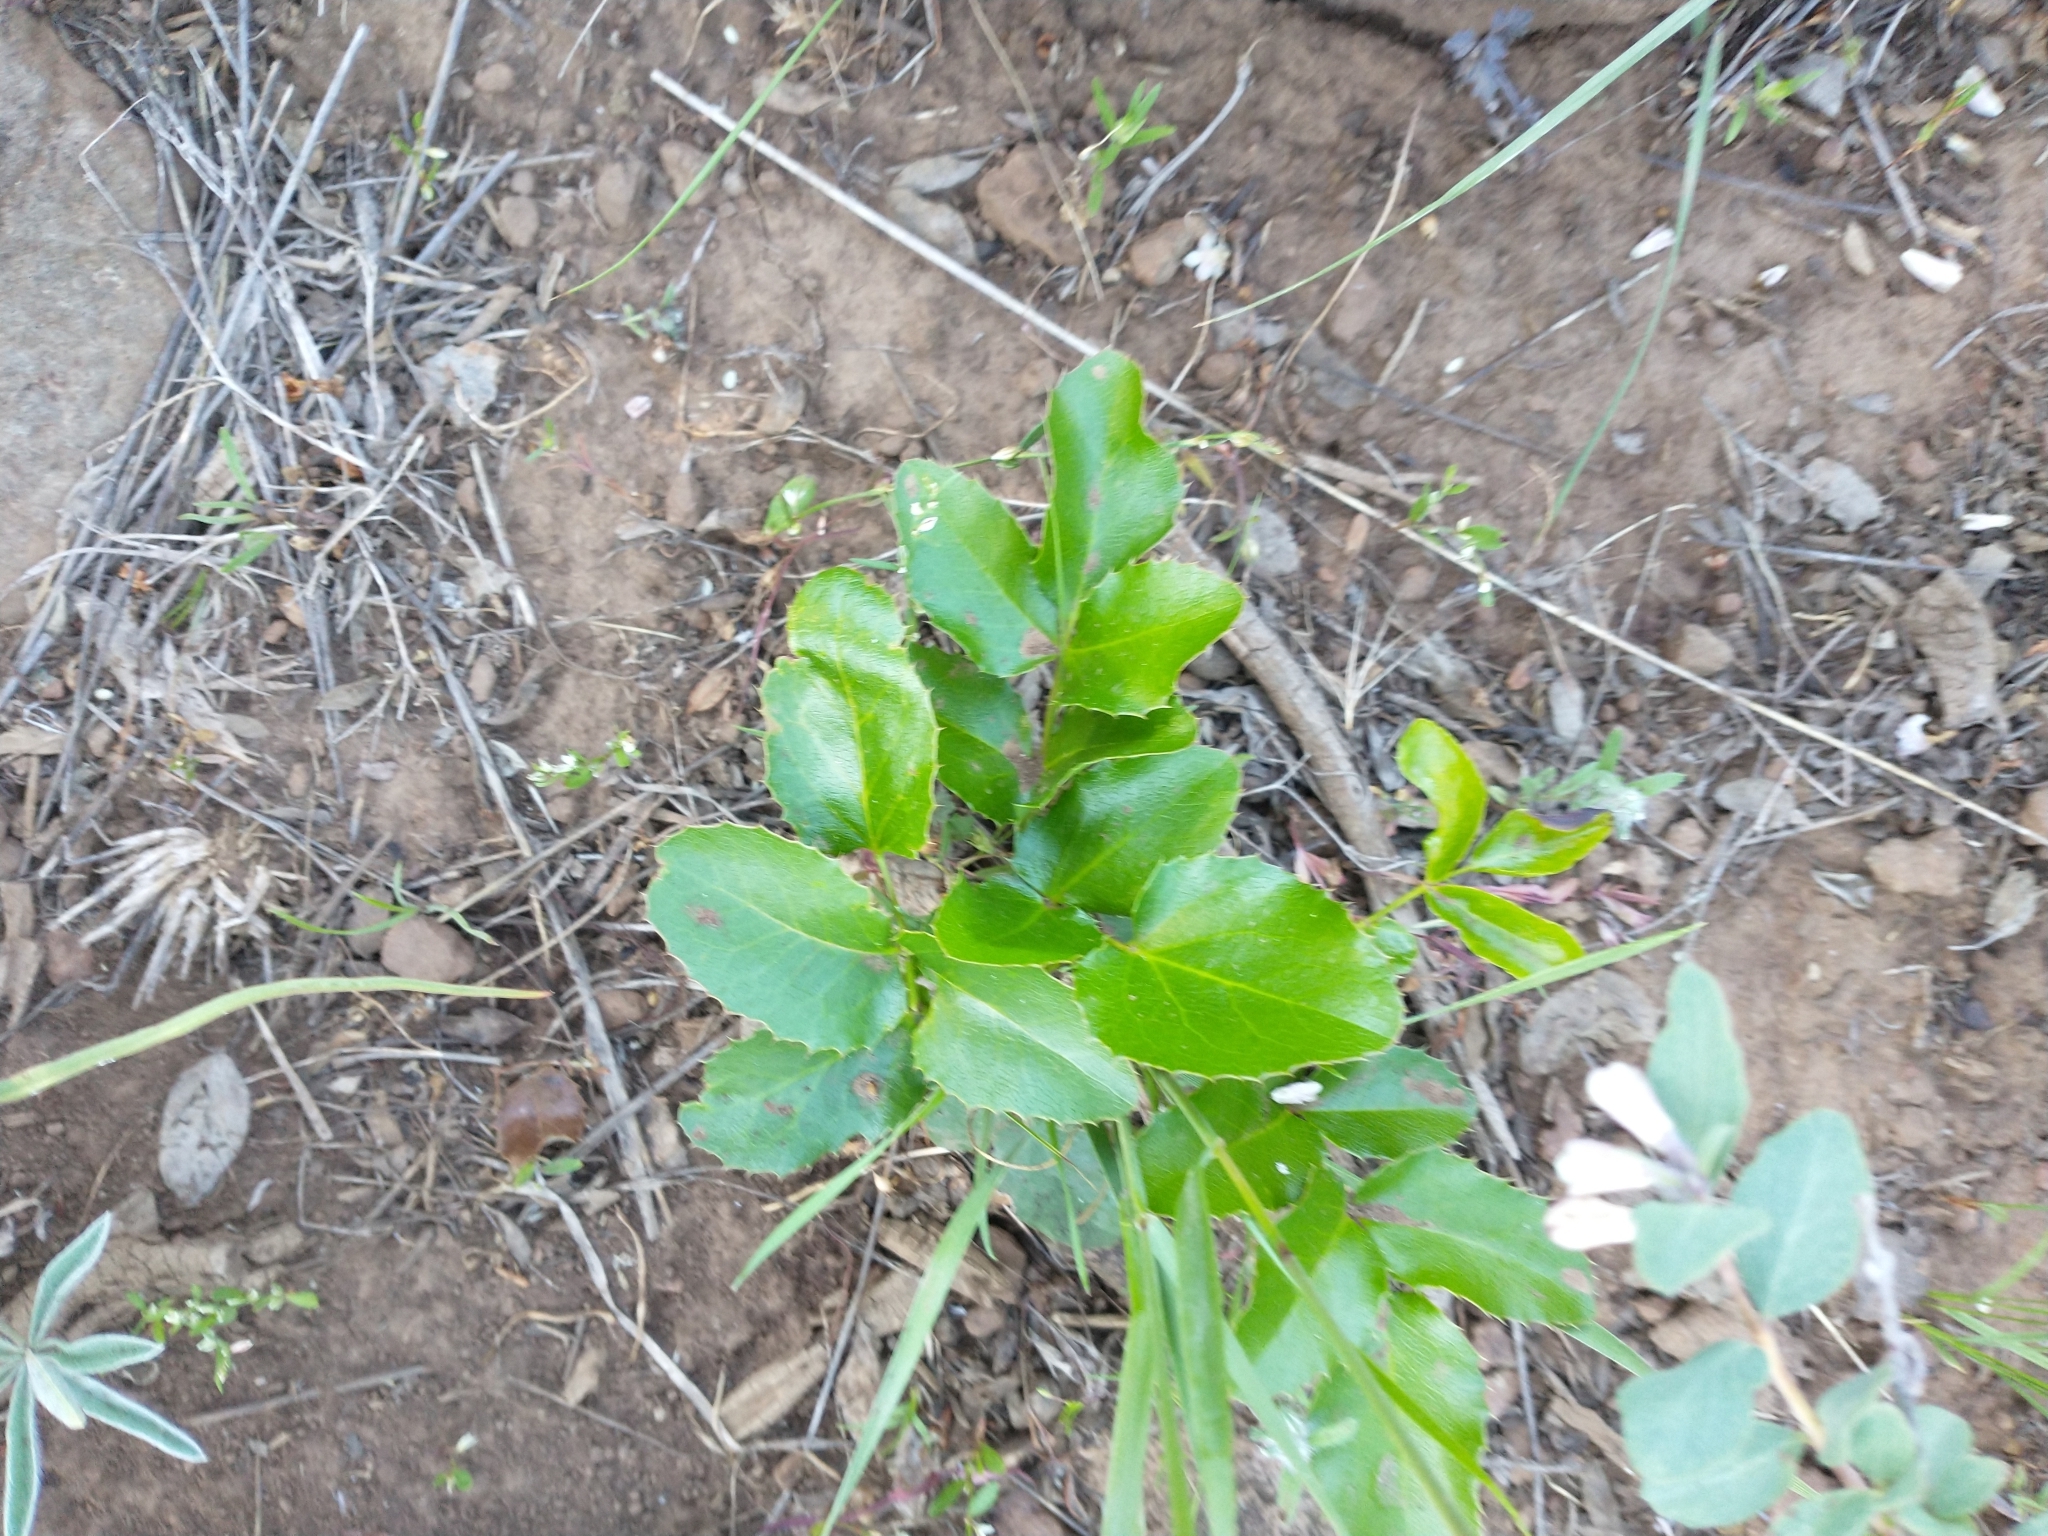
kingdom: Plantae
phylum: Tracheophyta
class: Magnoliopsida
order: Ranunculales
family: Berberidaceae
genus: Mahonia
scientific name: Mahonia repens
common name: Creeping oregon-grape
